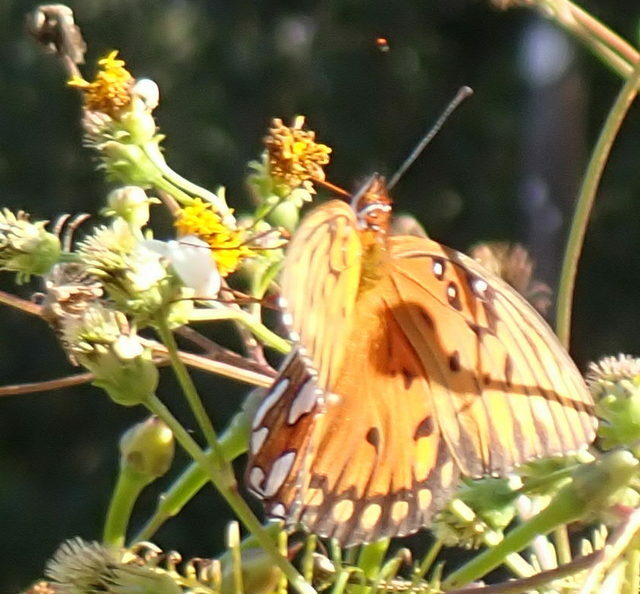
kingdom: Animalia
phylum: Arthropoda
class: Insecta
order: Lepidoptera
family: Nymphalidae
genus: Dione
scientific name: Dione vanillae
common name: Gulf fritillary
